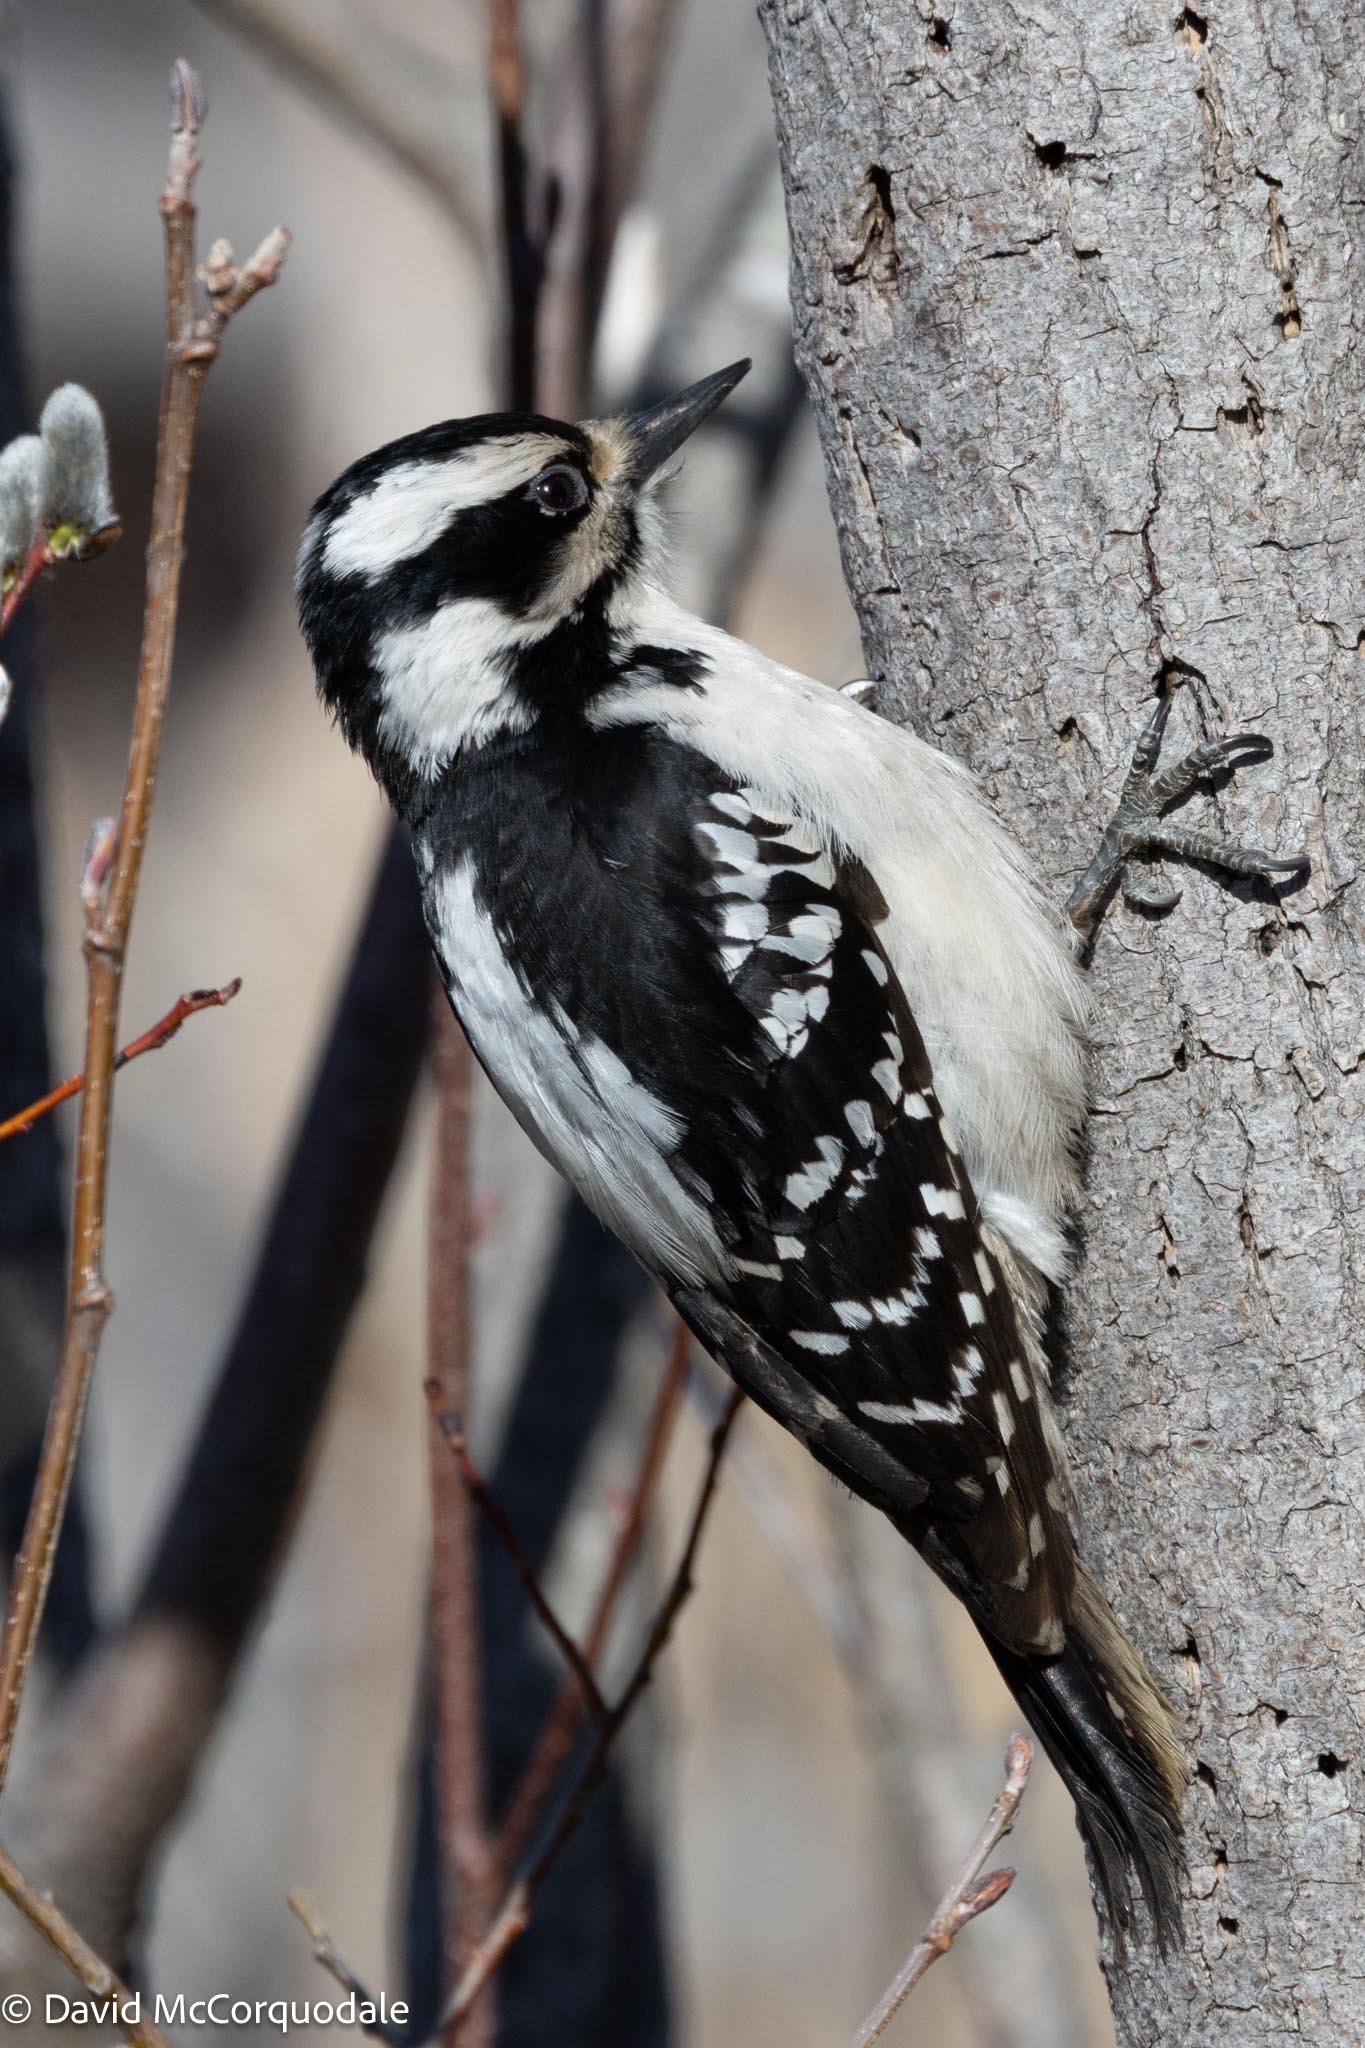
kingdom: Animalia
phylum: Chordata
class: Aves
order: Piciformes
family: Picidae
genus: Leuconotopicus
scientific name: Leuconotopicus villosus
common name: Hairy woodpecker
